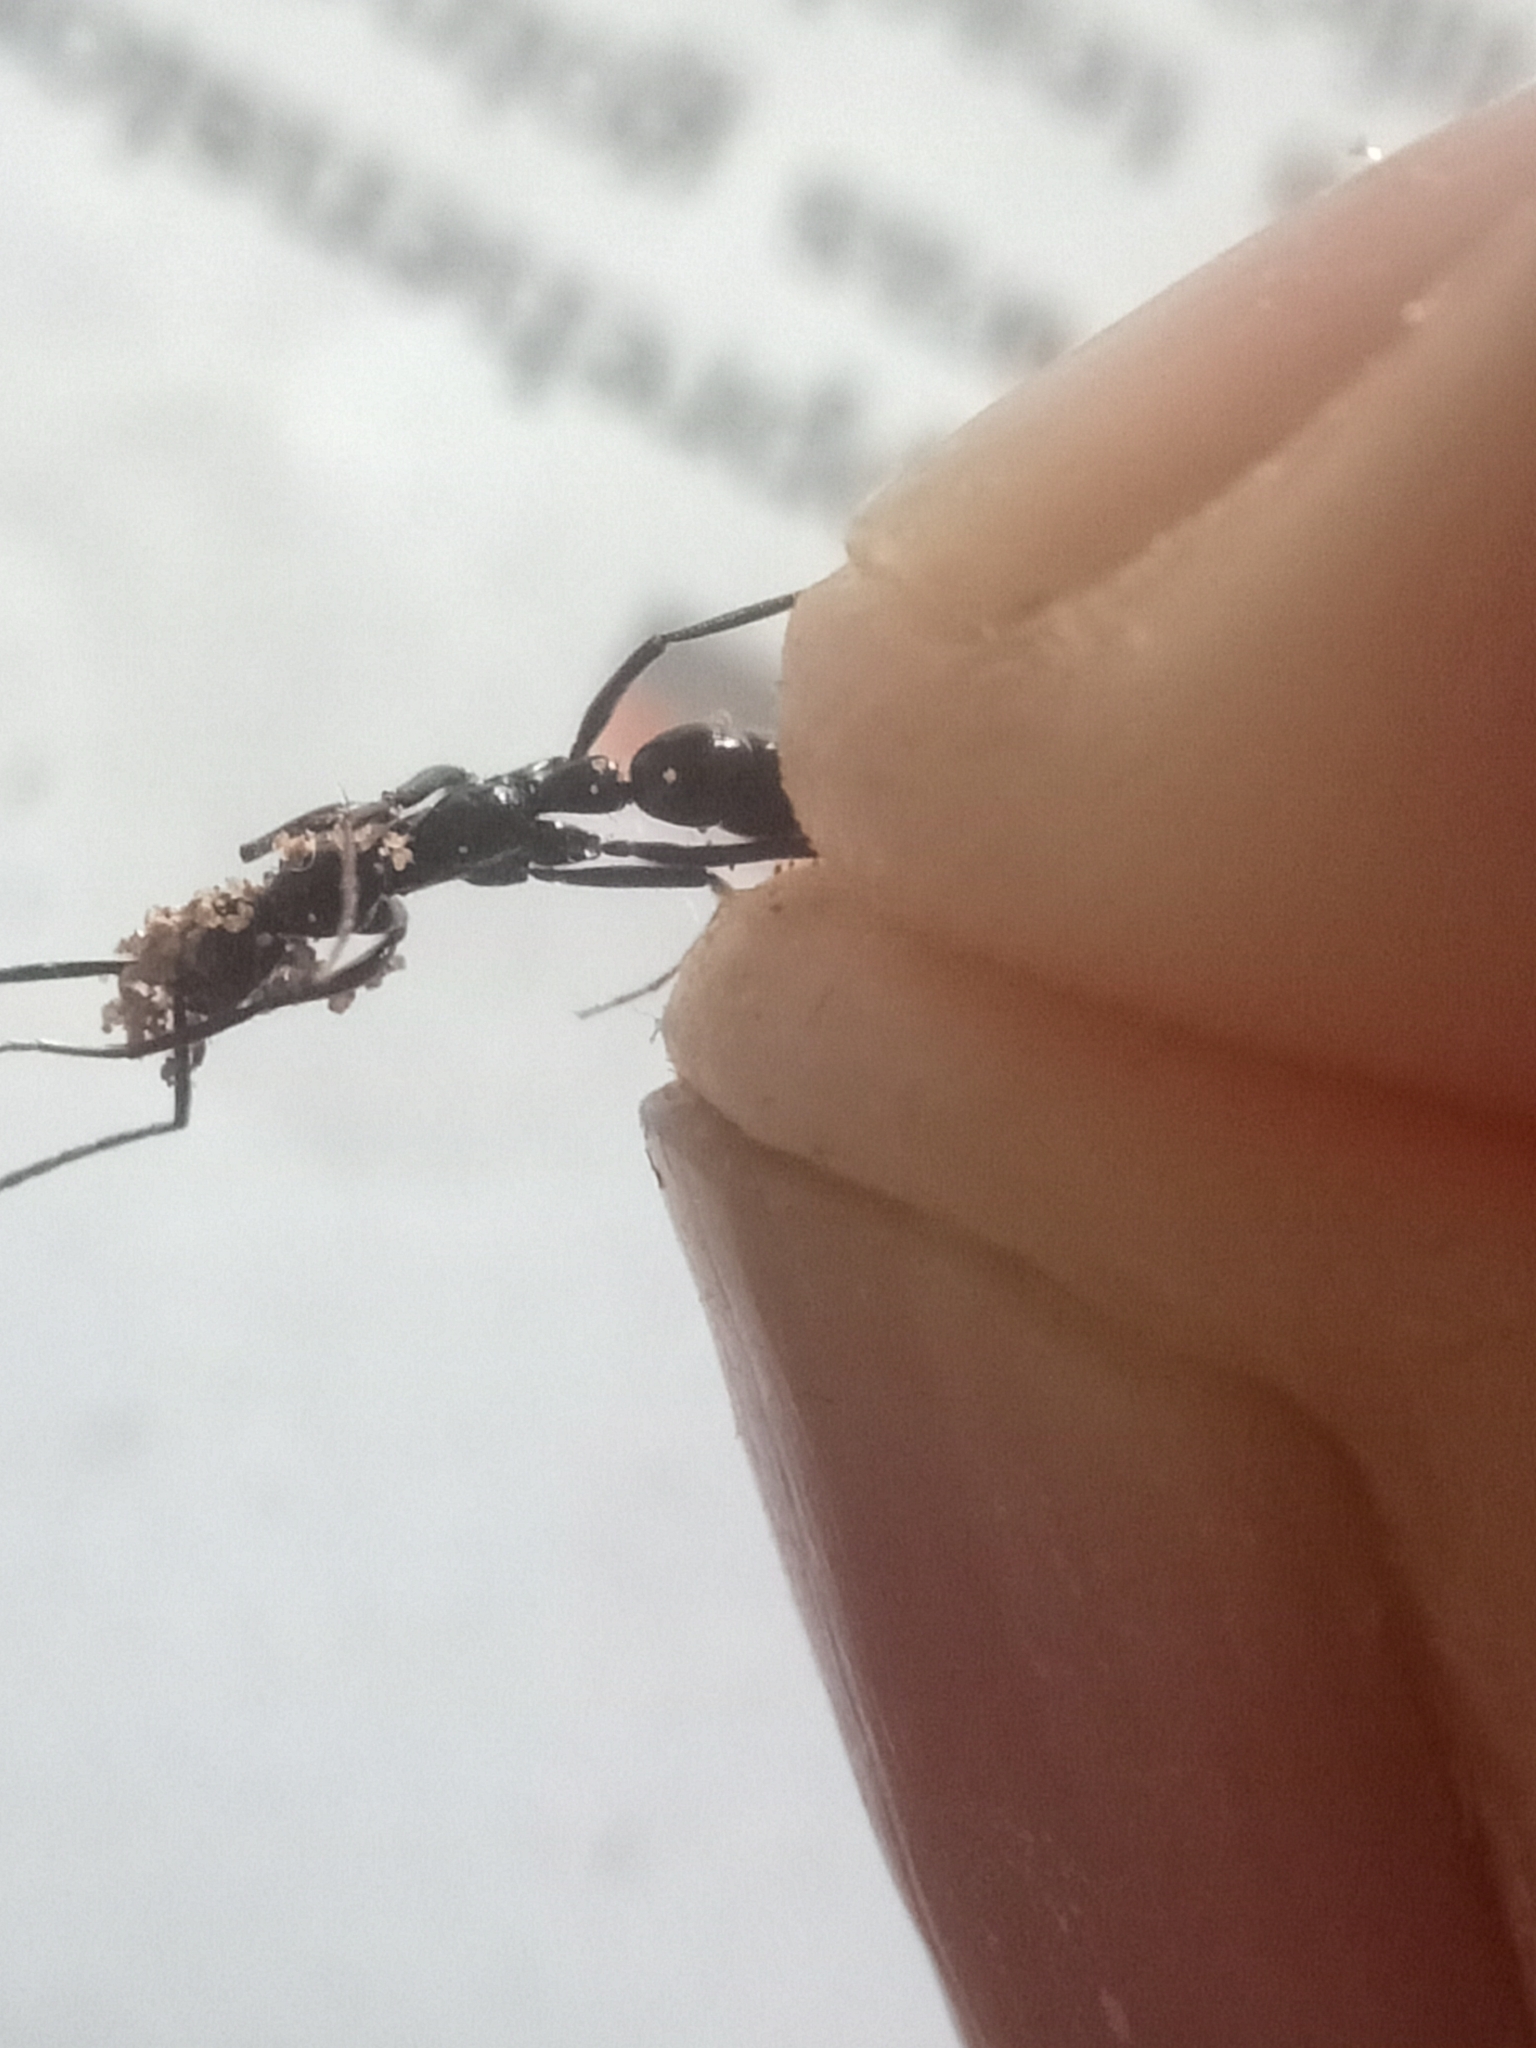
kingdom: Animalia
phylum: Arthropoda
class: Insecta
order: Hymenoptera
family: Formicidae
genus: Leptogenys
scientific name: Leptogenys peuqueti
